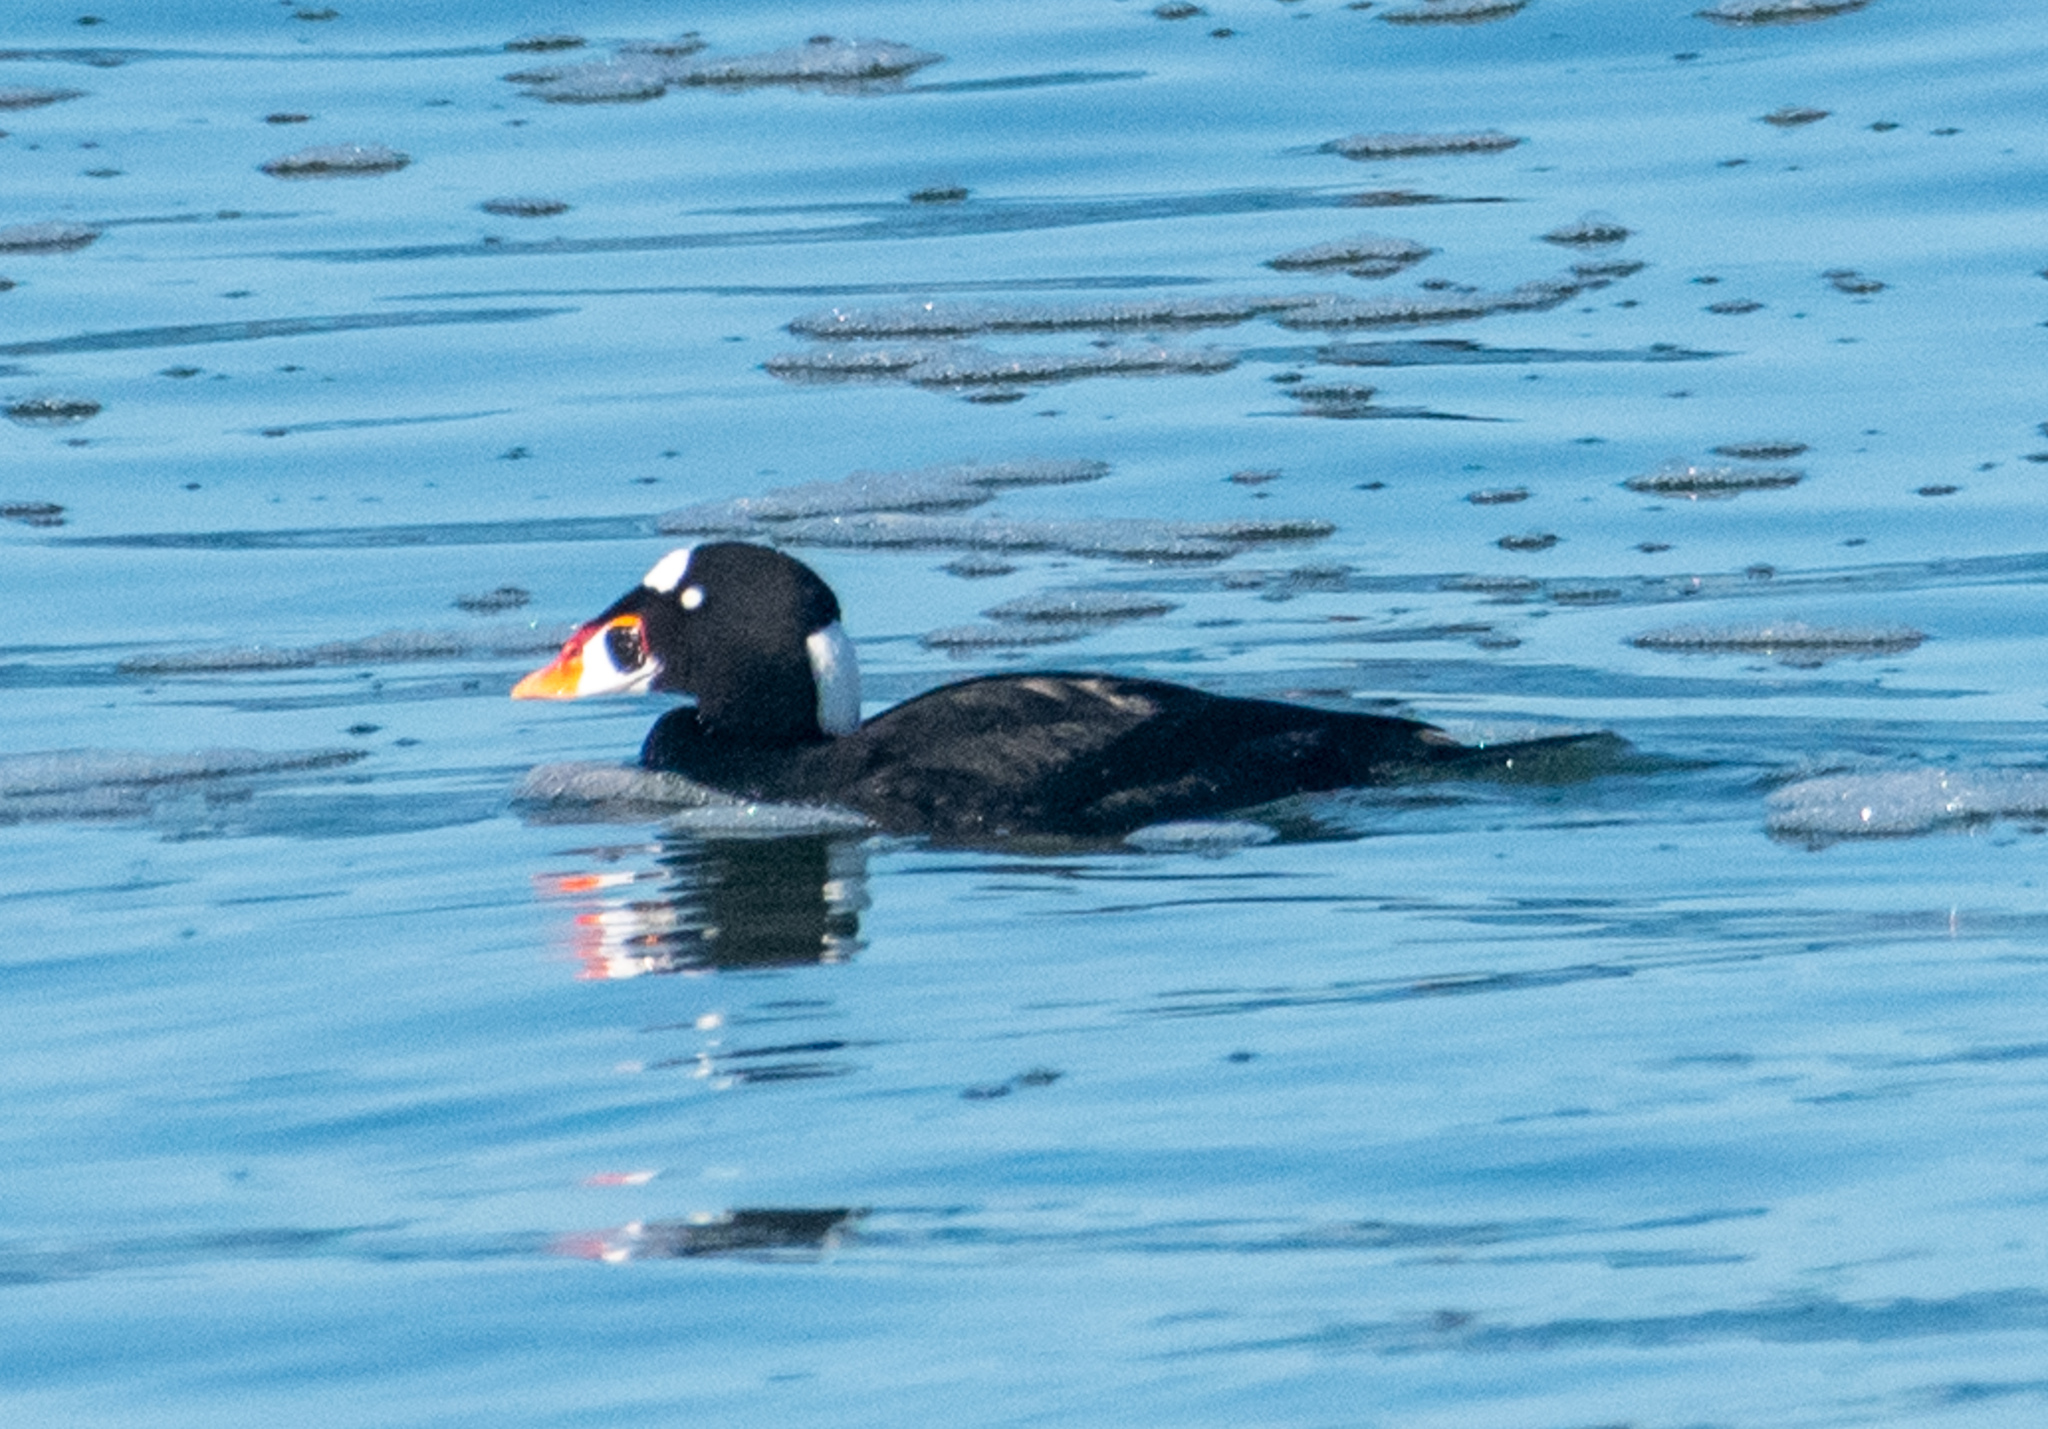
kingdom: Animalia
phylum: Chordata
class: Aves
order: Anseriformes
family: Anatidae
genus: Melanitta
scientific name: Melanitta perspicillata
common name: Surf scoter
